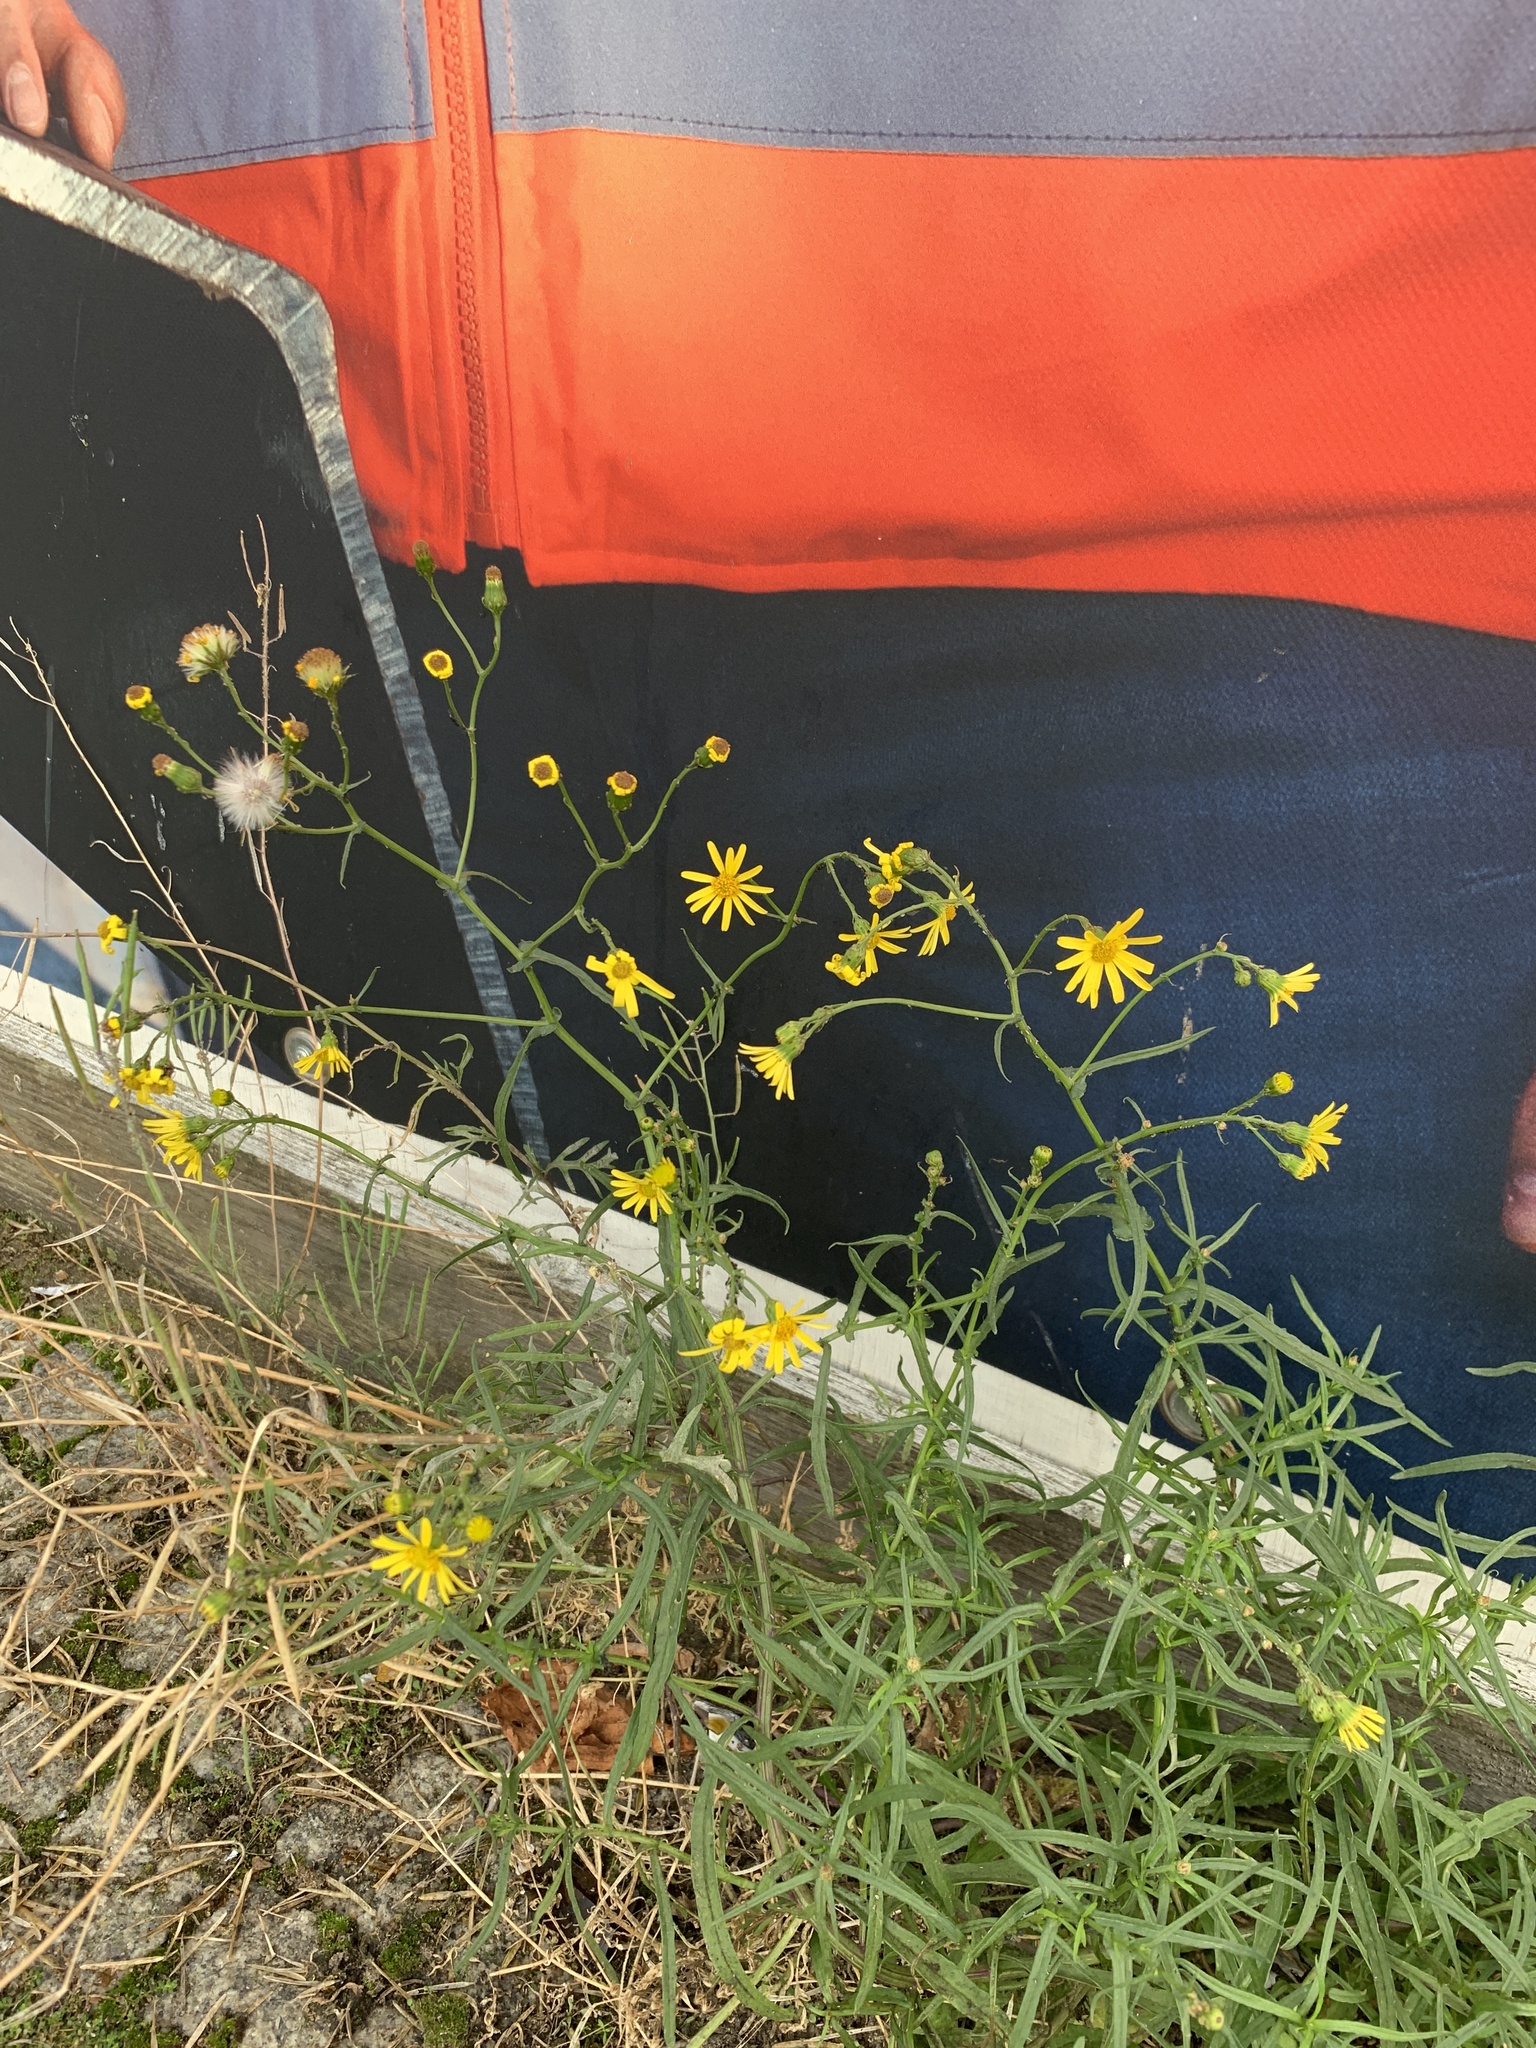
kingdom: Plantae
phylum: Tracheophyta
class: Magnoliopsida
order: Asterales
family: Asteraceae
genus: Senecio
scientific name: Senecio inaequidens
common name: Narrow-leaved ragwort
